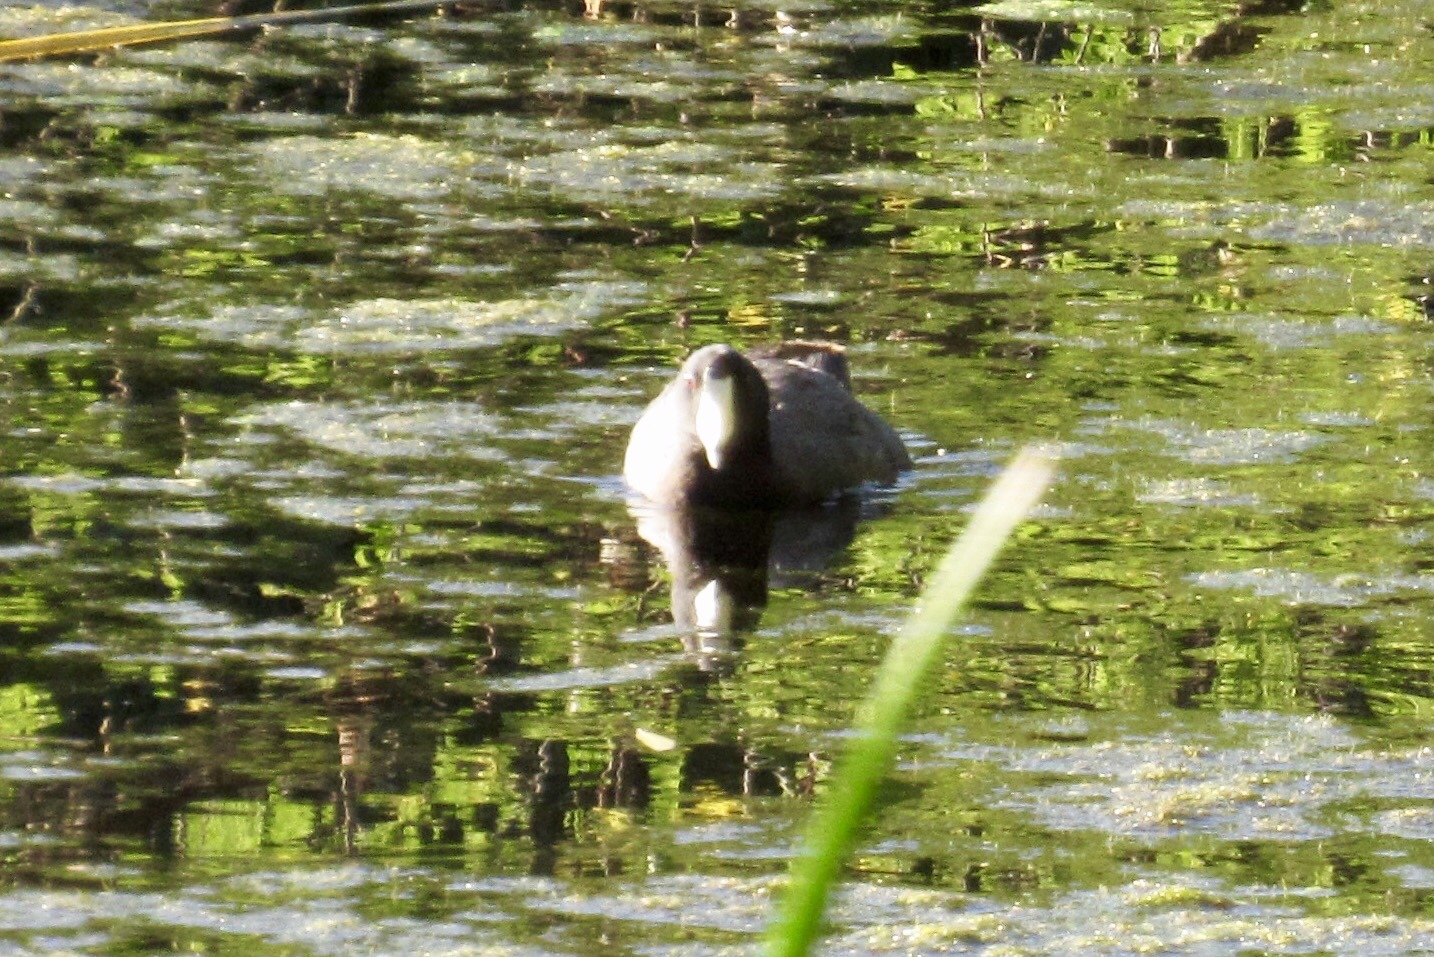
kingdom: Animalia
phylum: Chordata
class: Aves
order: Gruiformes
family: Rallidae
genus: Fulica
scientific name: Fulica americana
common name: American coot
